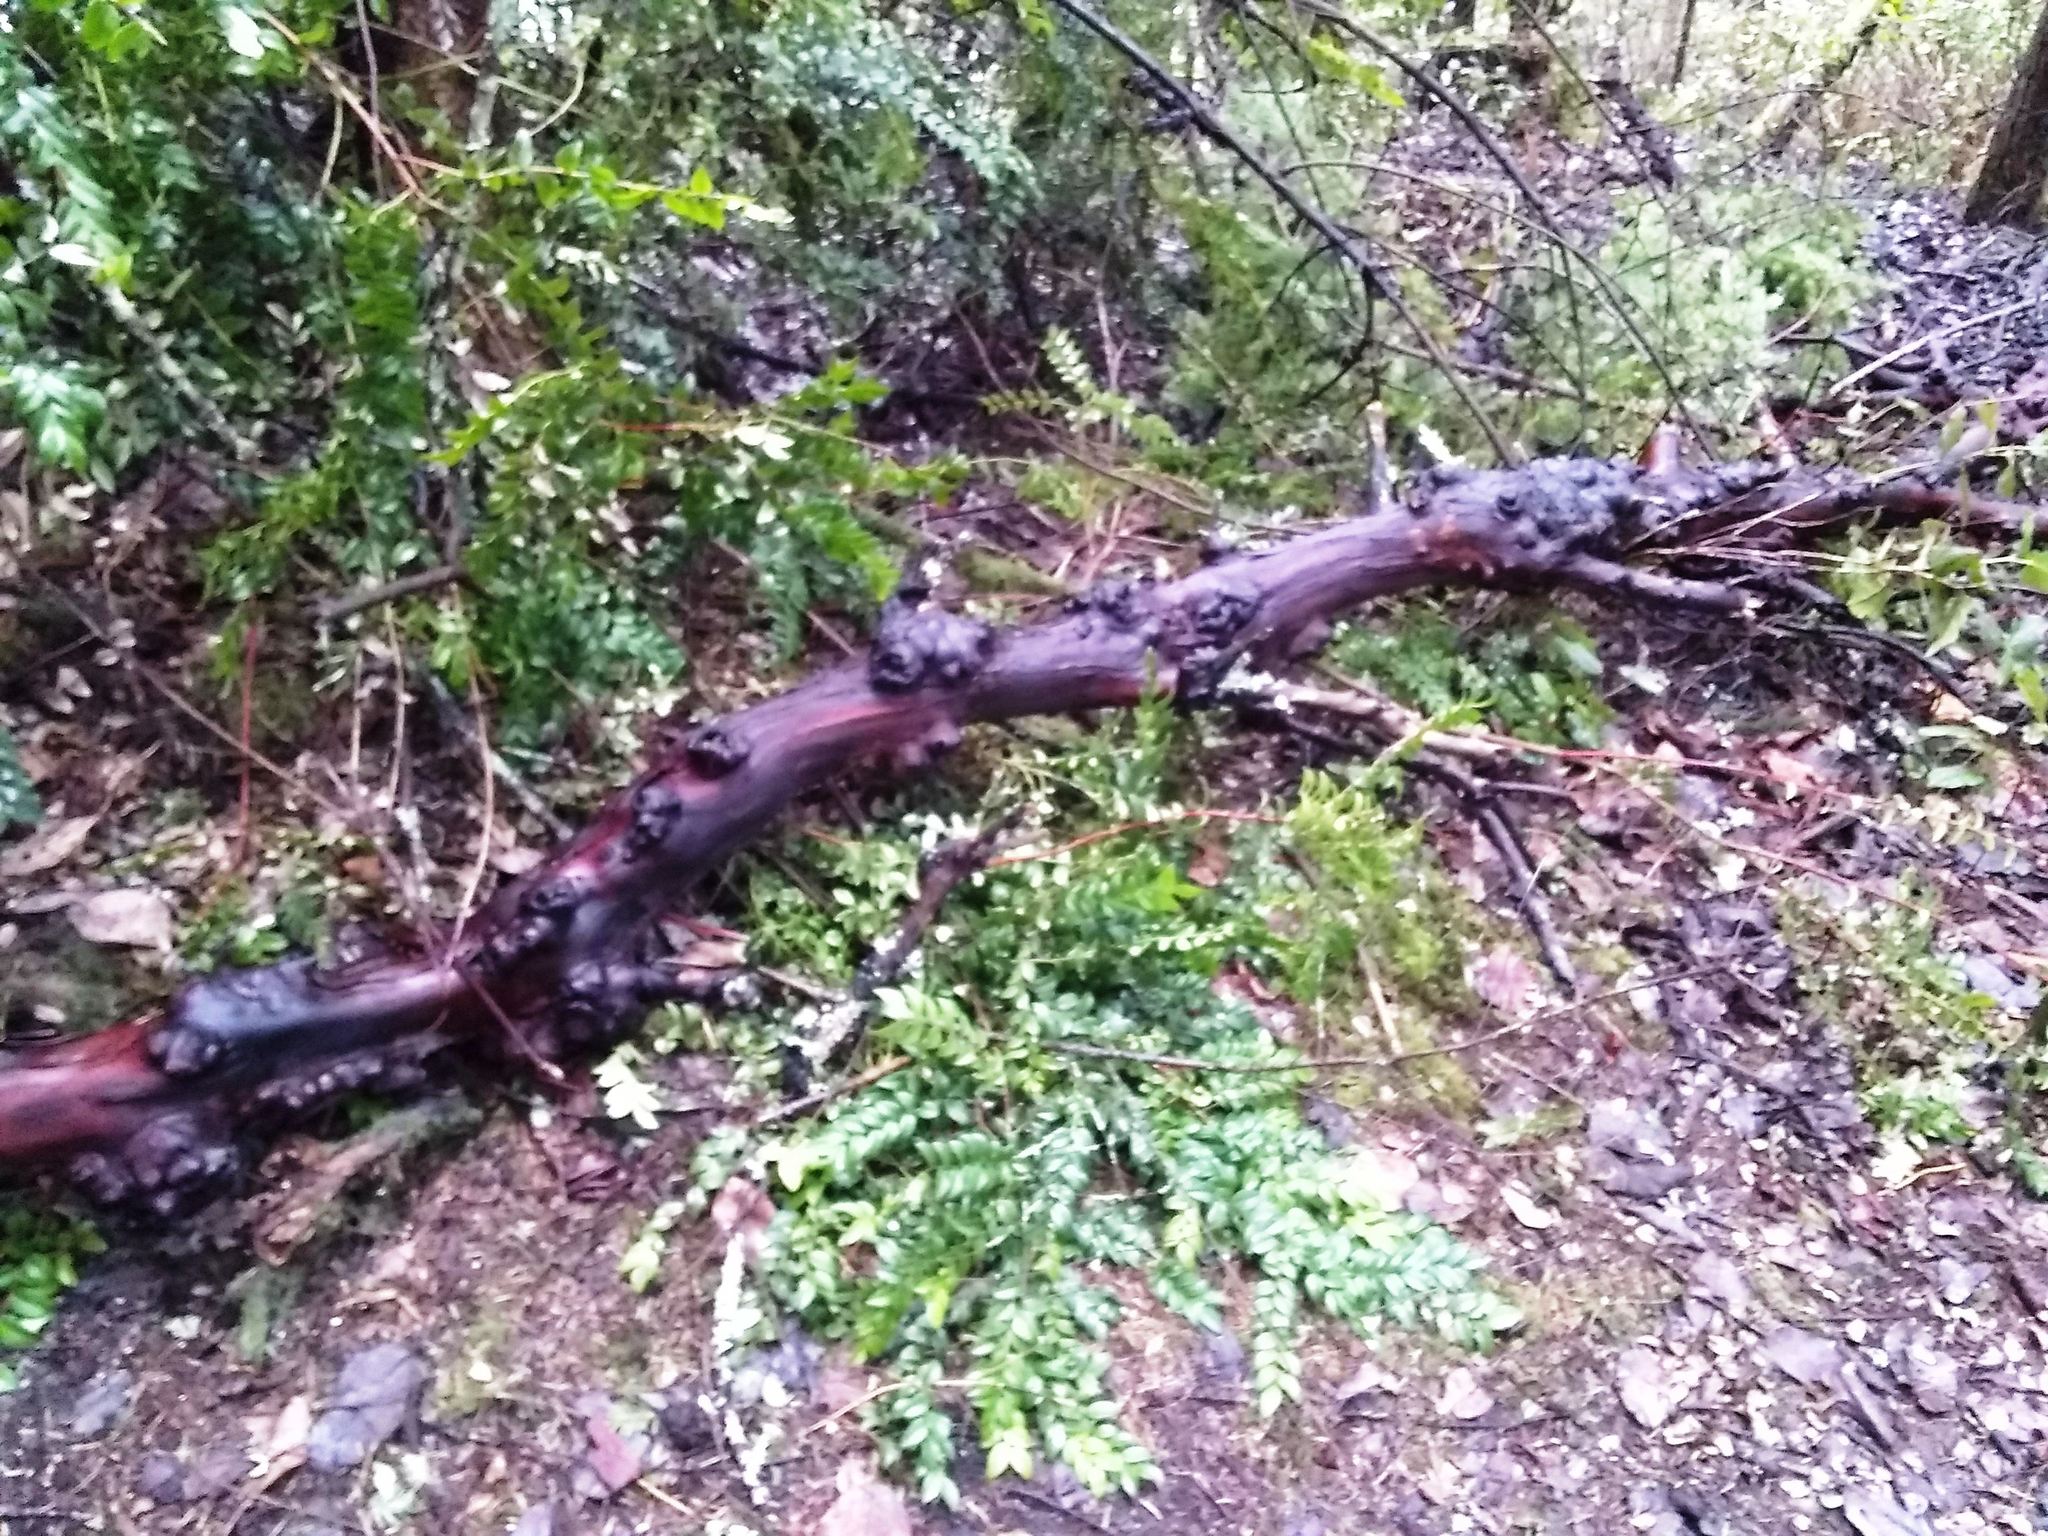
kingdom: Plantae
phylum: Tracheophyta
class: Magnoliopsida
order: Ericales
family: Ericaceae
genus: Arbutus
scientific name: Arbutus menziesii
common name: Pacific madrone
